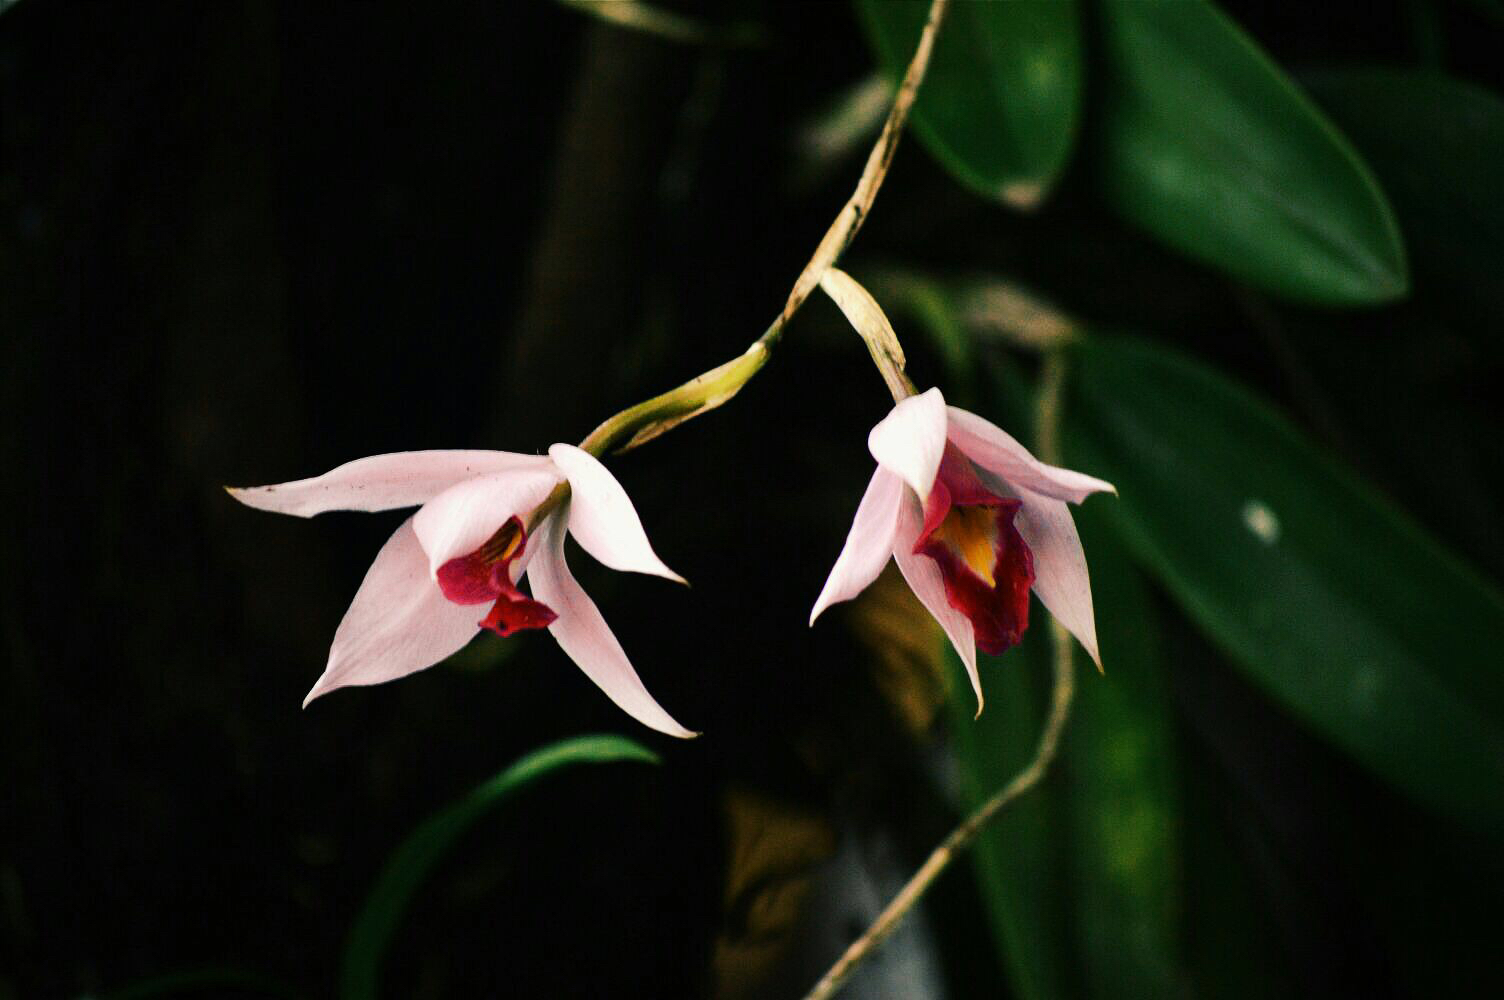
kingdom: Plantae
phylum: Tracheophyta
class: Liliopsida
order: Asparagales
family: Orchidaceae
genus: Laelia
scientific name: Laelia anceps
